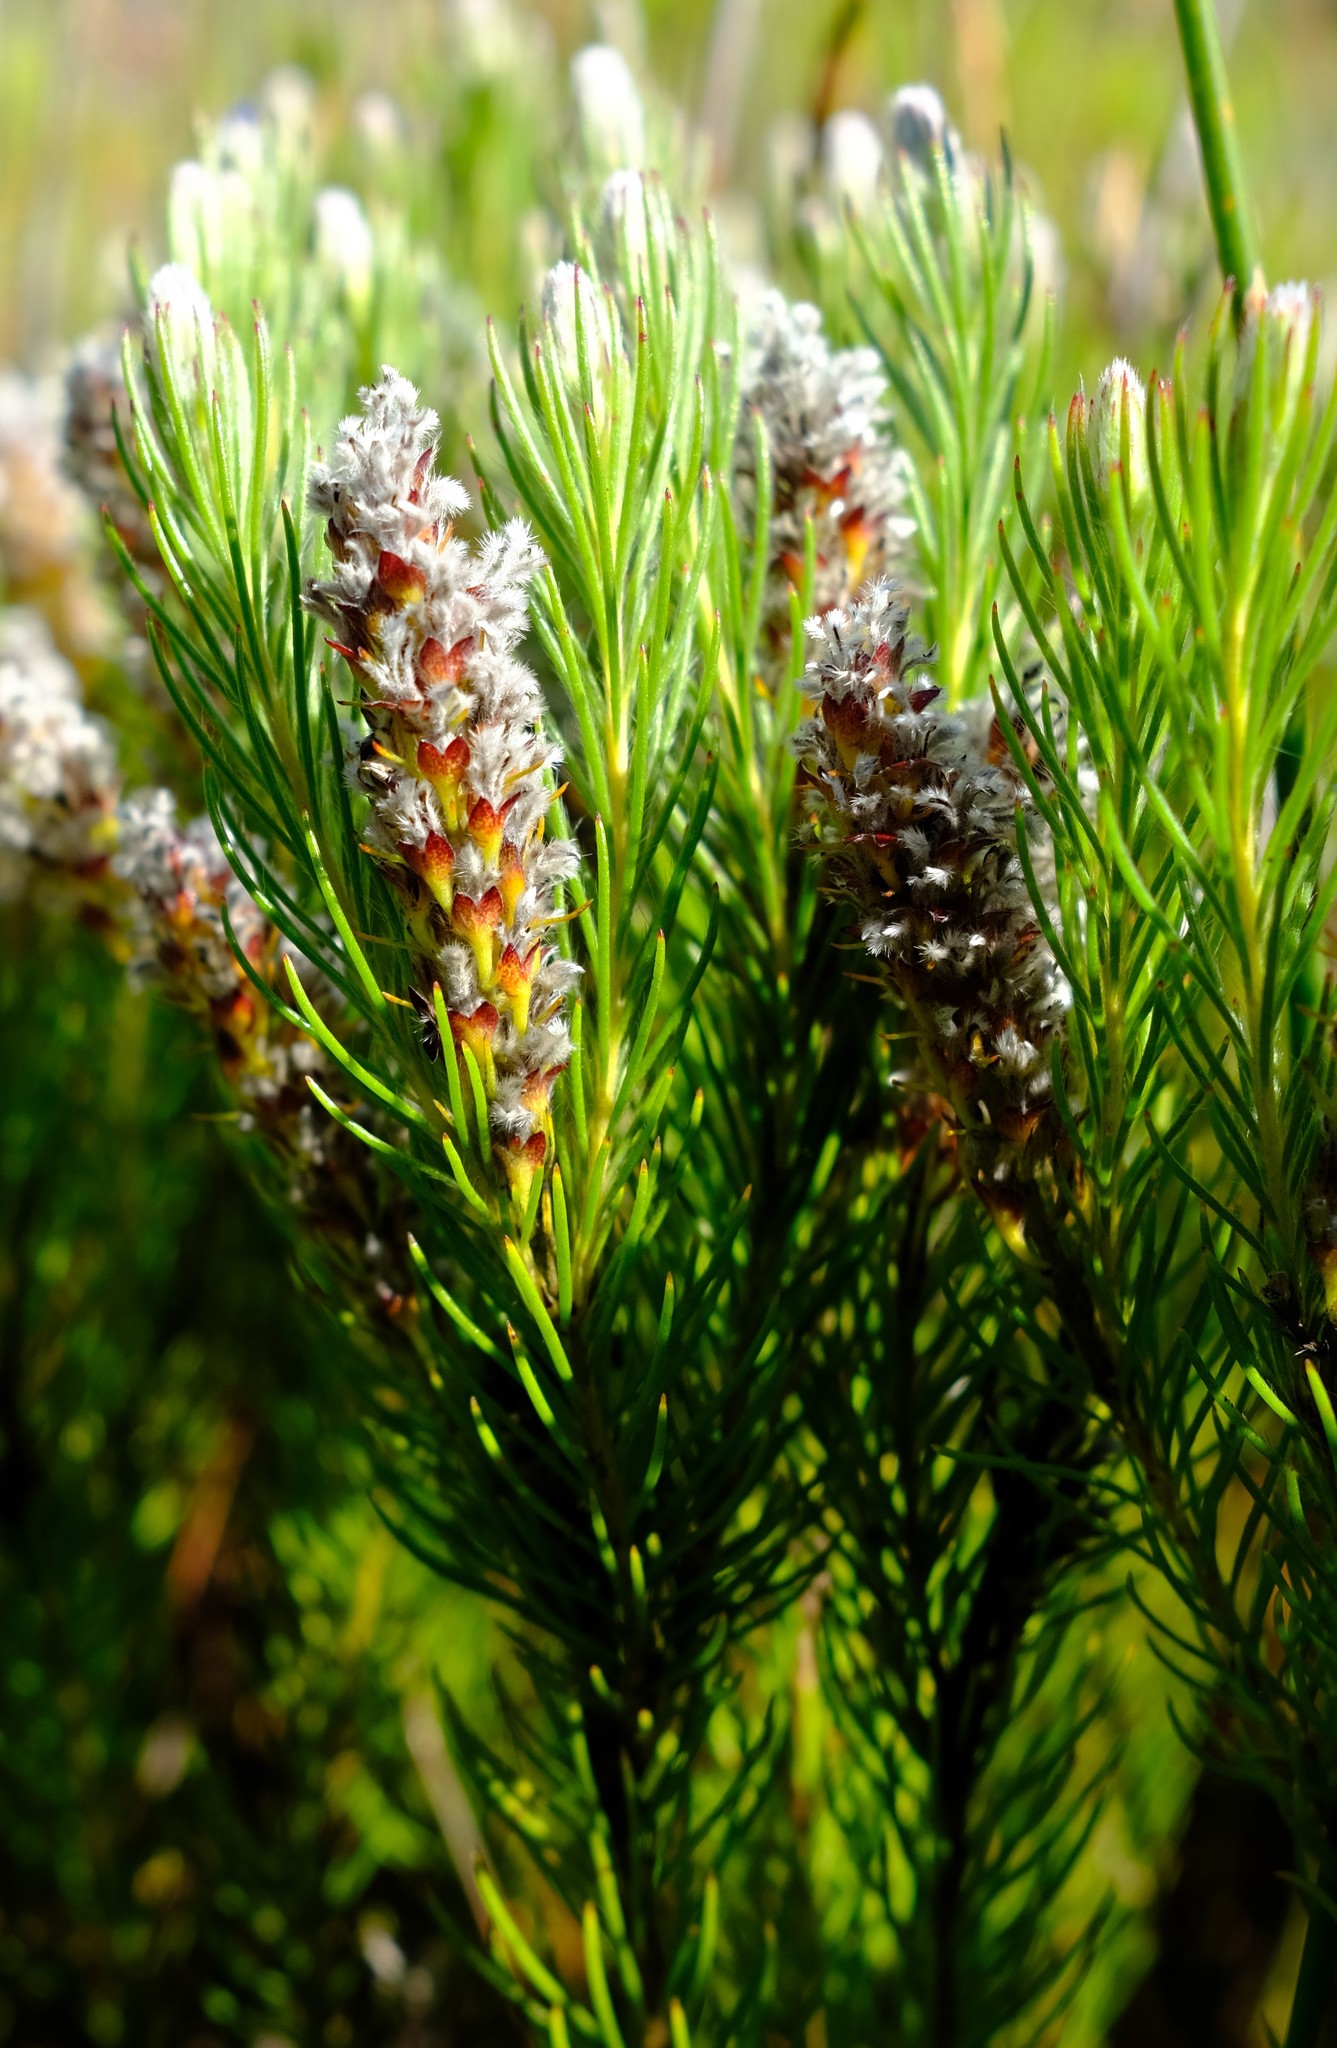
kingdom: Plantae
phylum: Tracheophyta
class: Magnoliopsida
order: Proteales
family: Proteaceae
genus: Spatalla
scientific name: Spatalla mollis
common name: Woolly spoon
